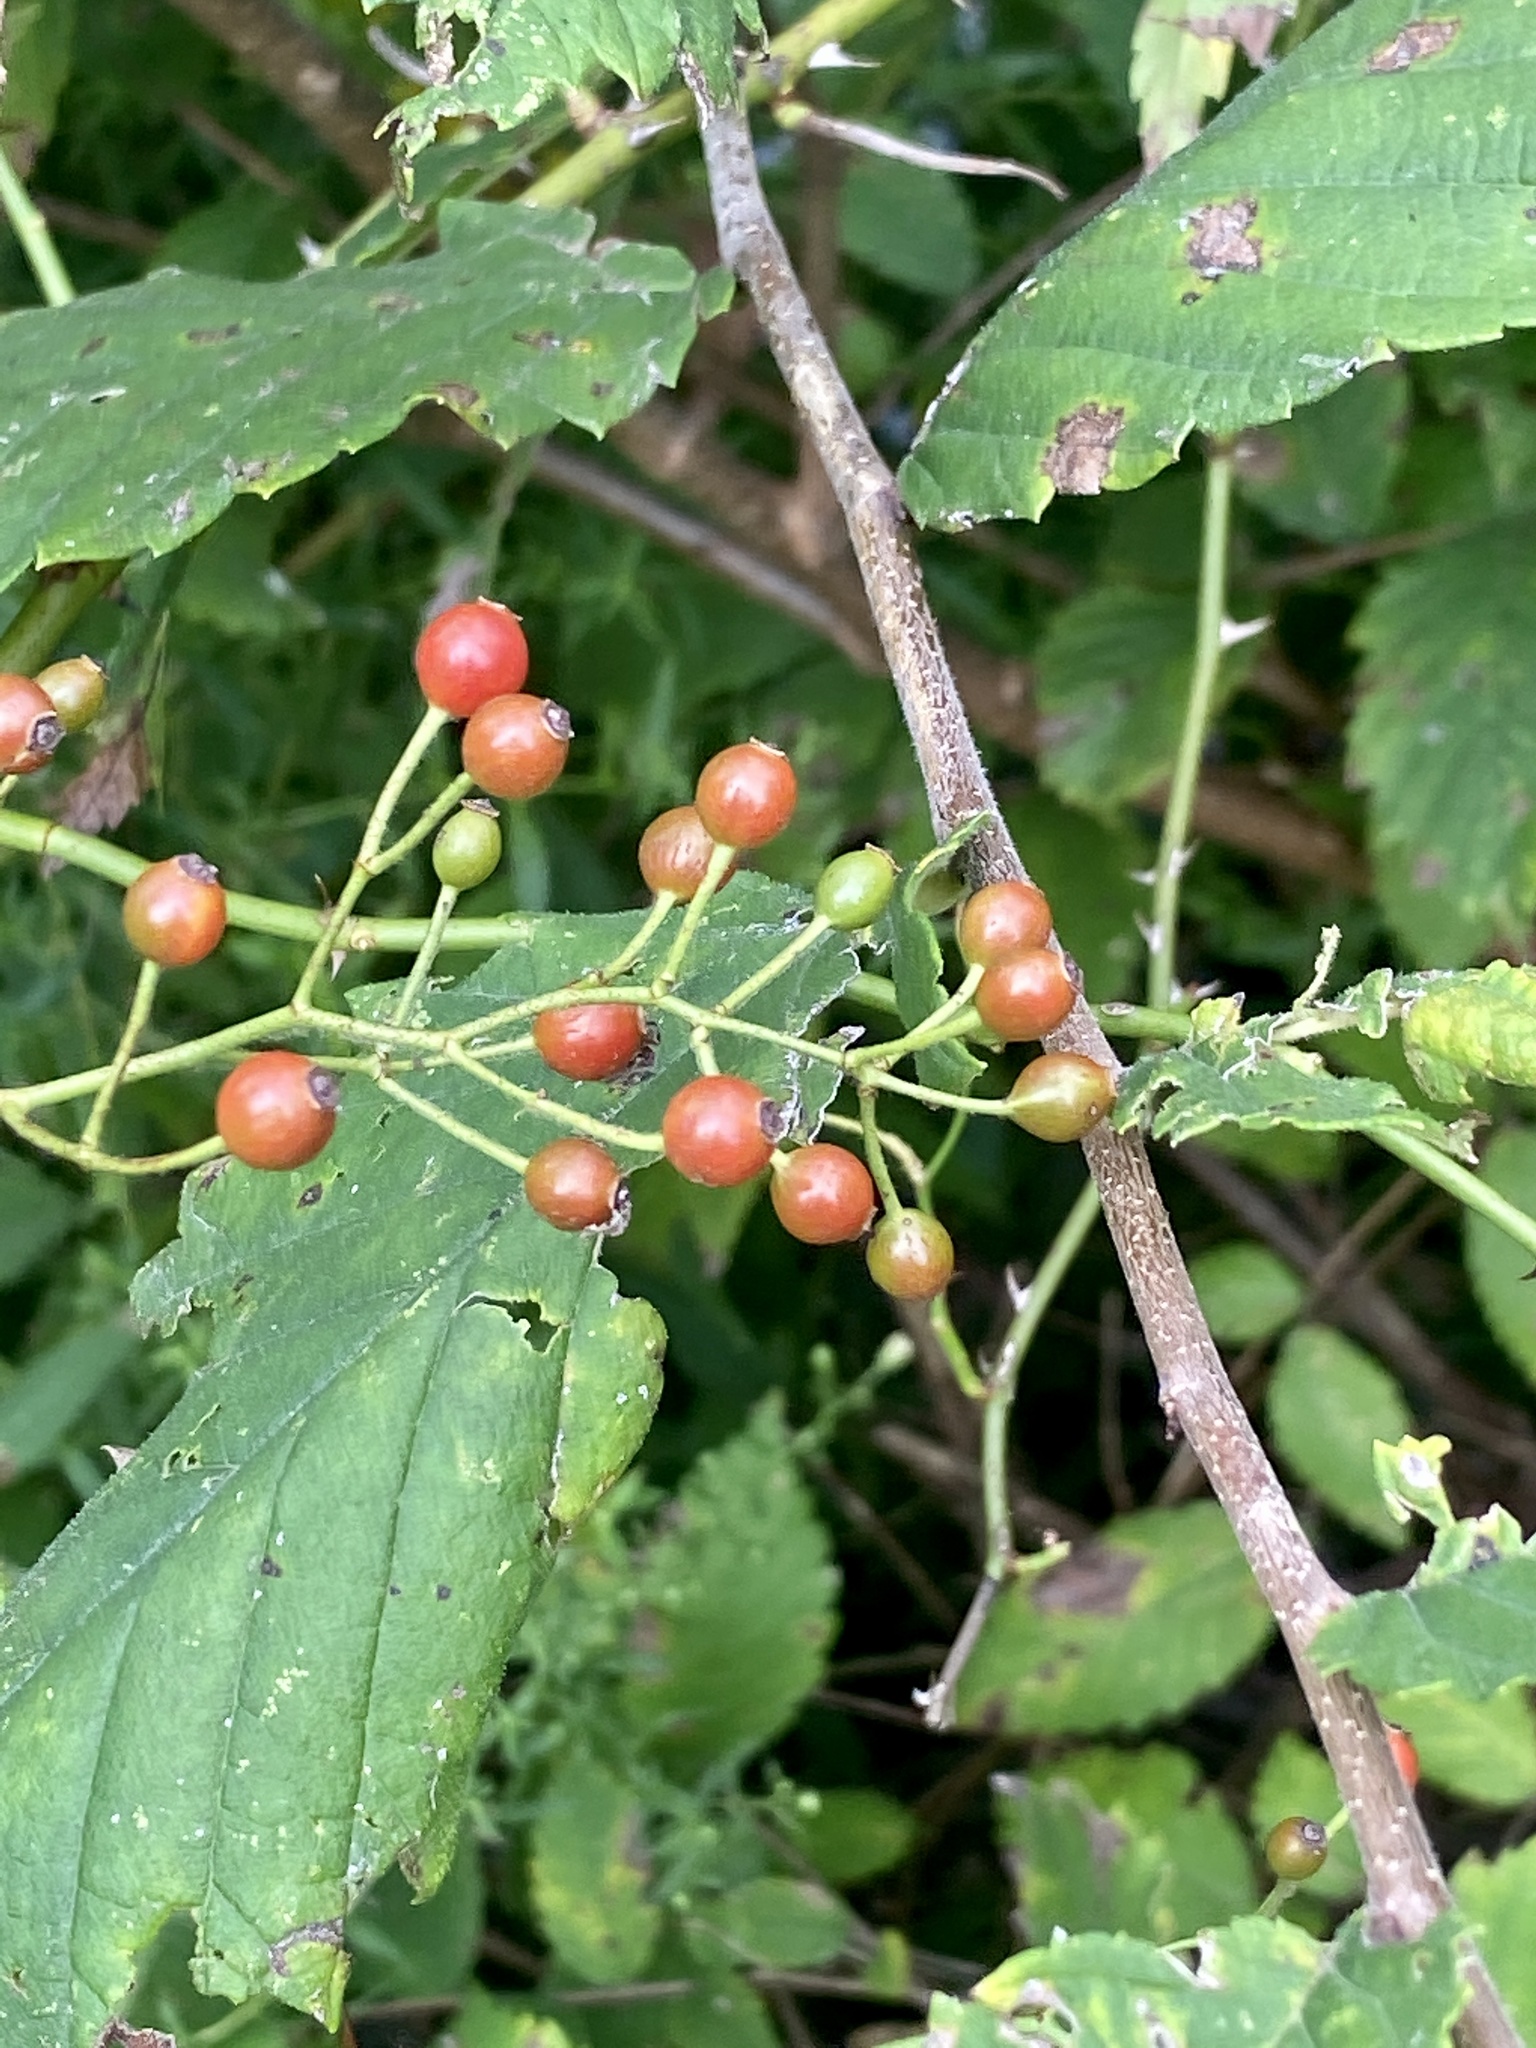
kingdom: Plantae
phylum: Tracheophyta
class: Magnoliopsida
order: Rosales
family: Rosaceae
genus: Rosa
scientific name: Rosa multiflora
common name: Multiflora rose
